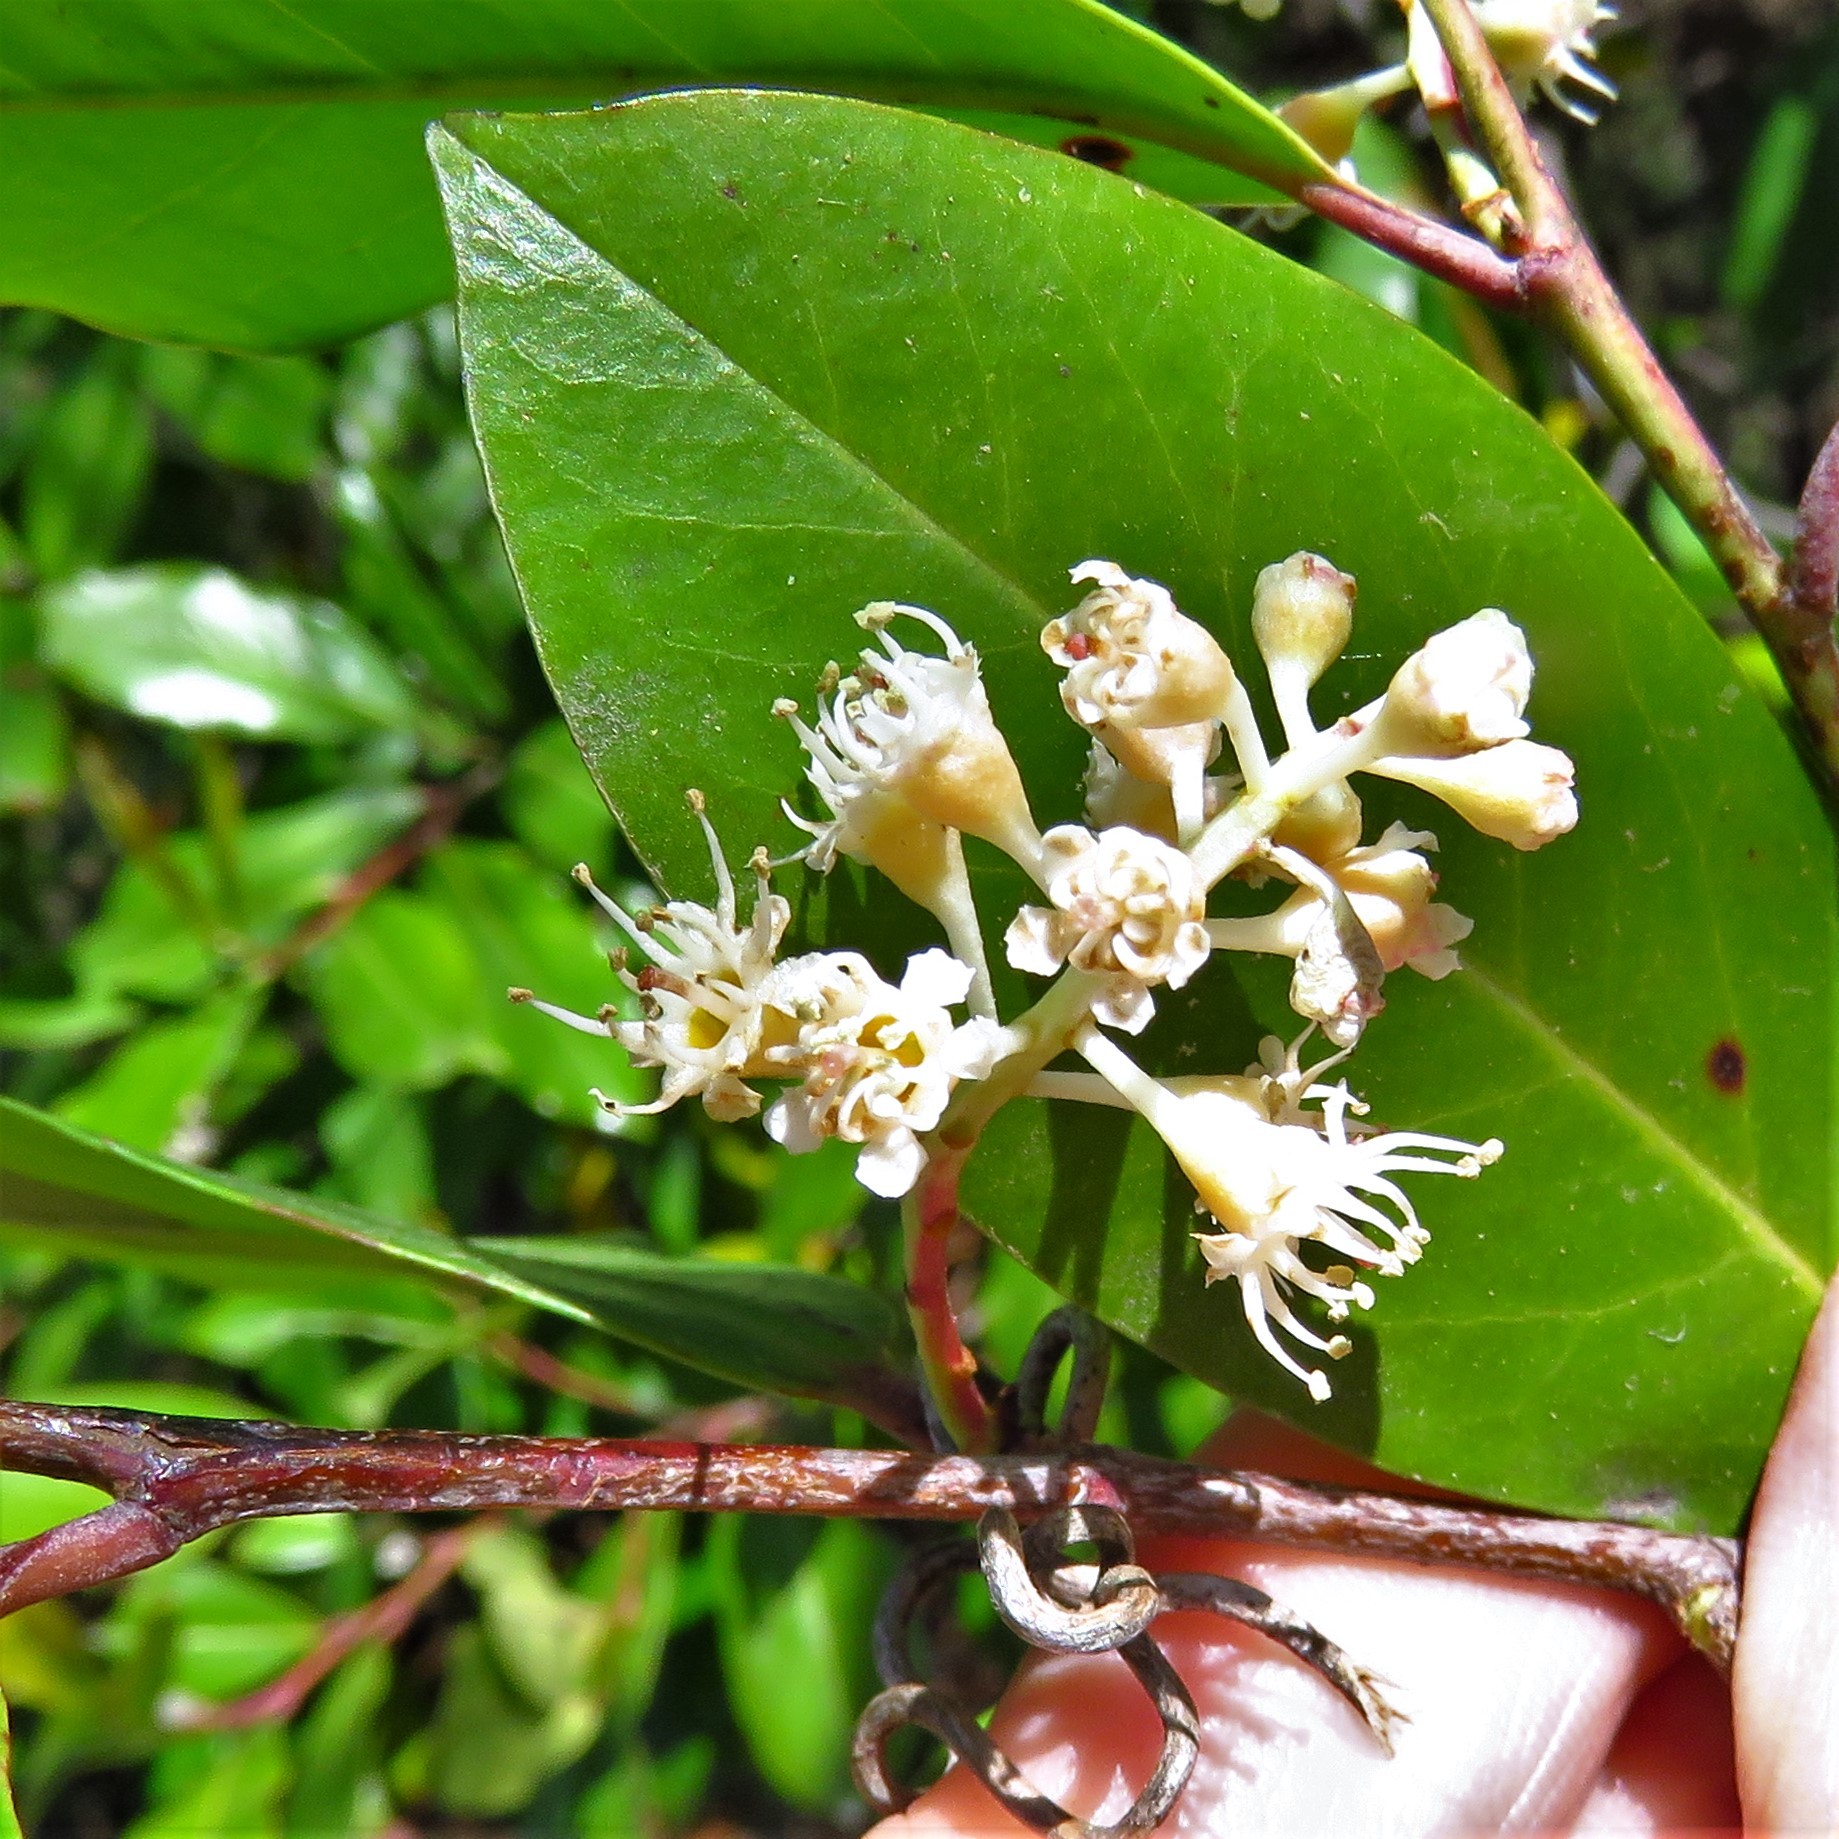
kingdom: Plantae
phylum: Tracheophyta
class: Magnoliopsida
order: Rosales
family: Rosaceae
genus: Prunus
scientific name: Prunus caroliniana
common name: Carolina laurel cherry
